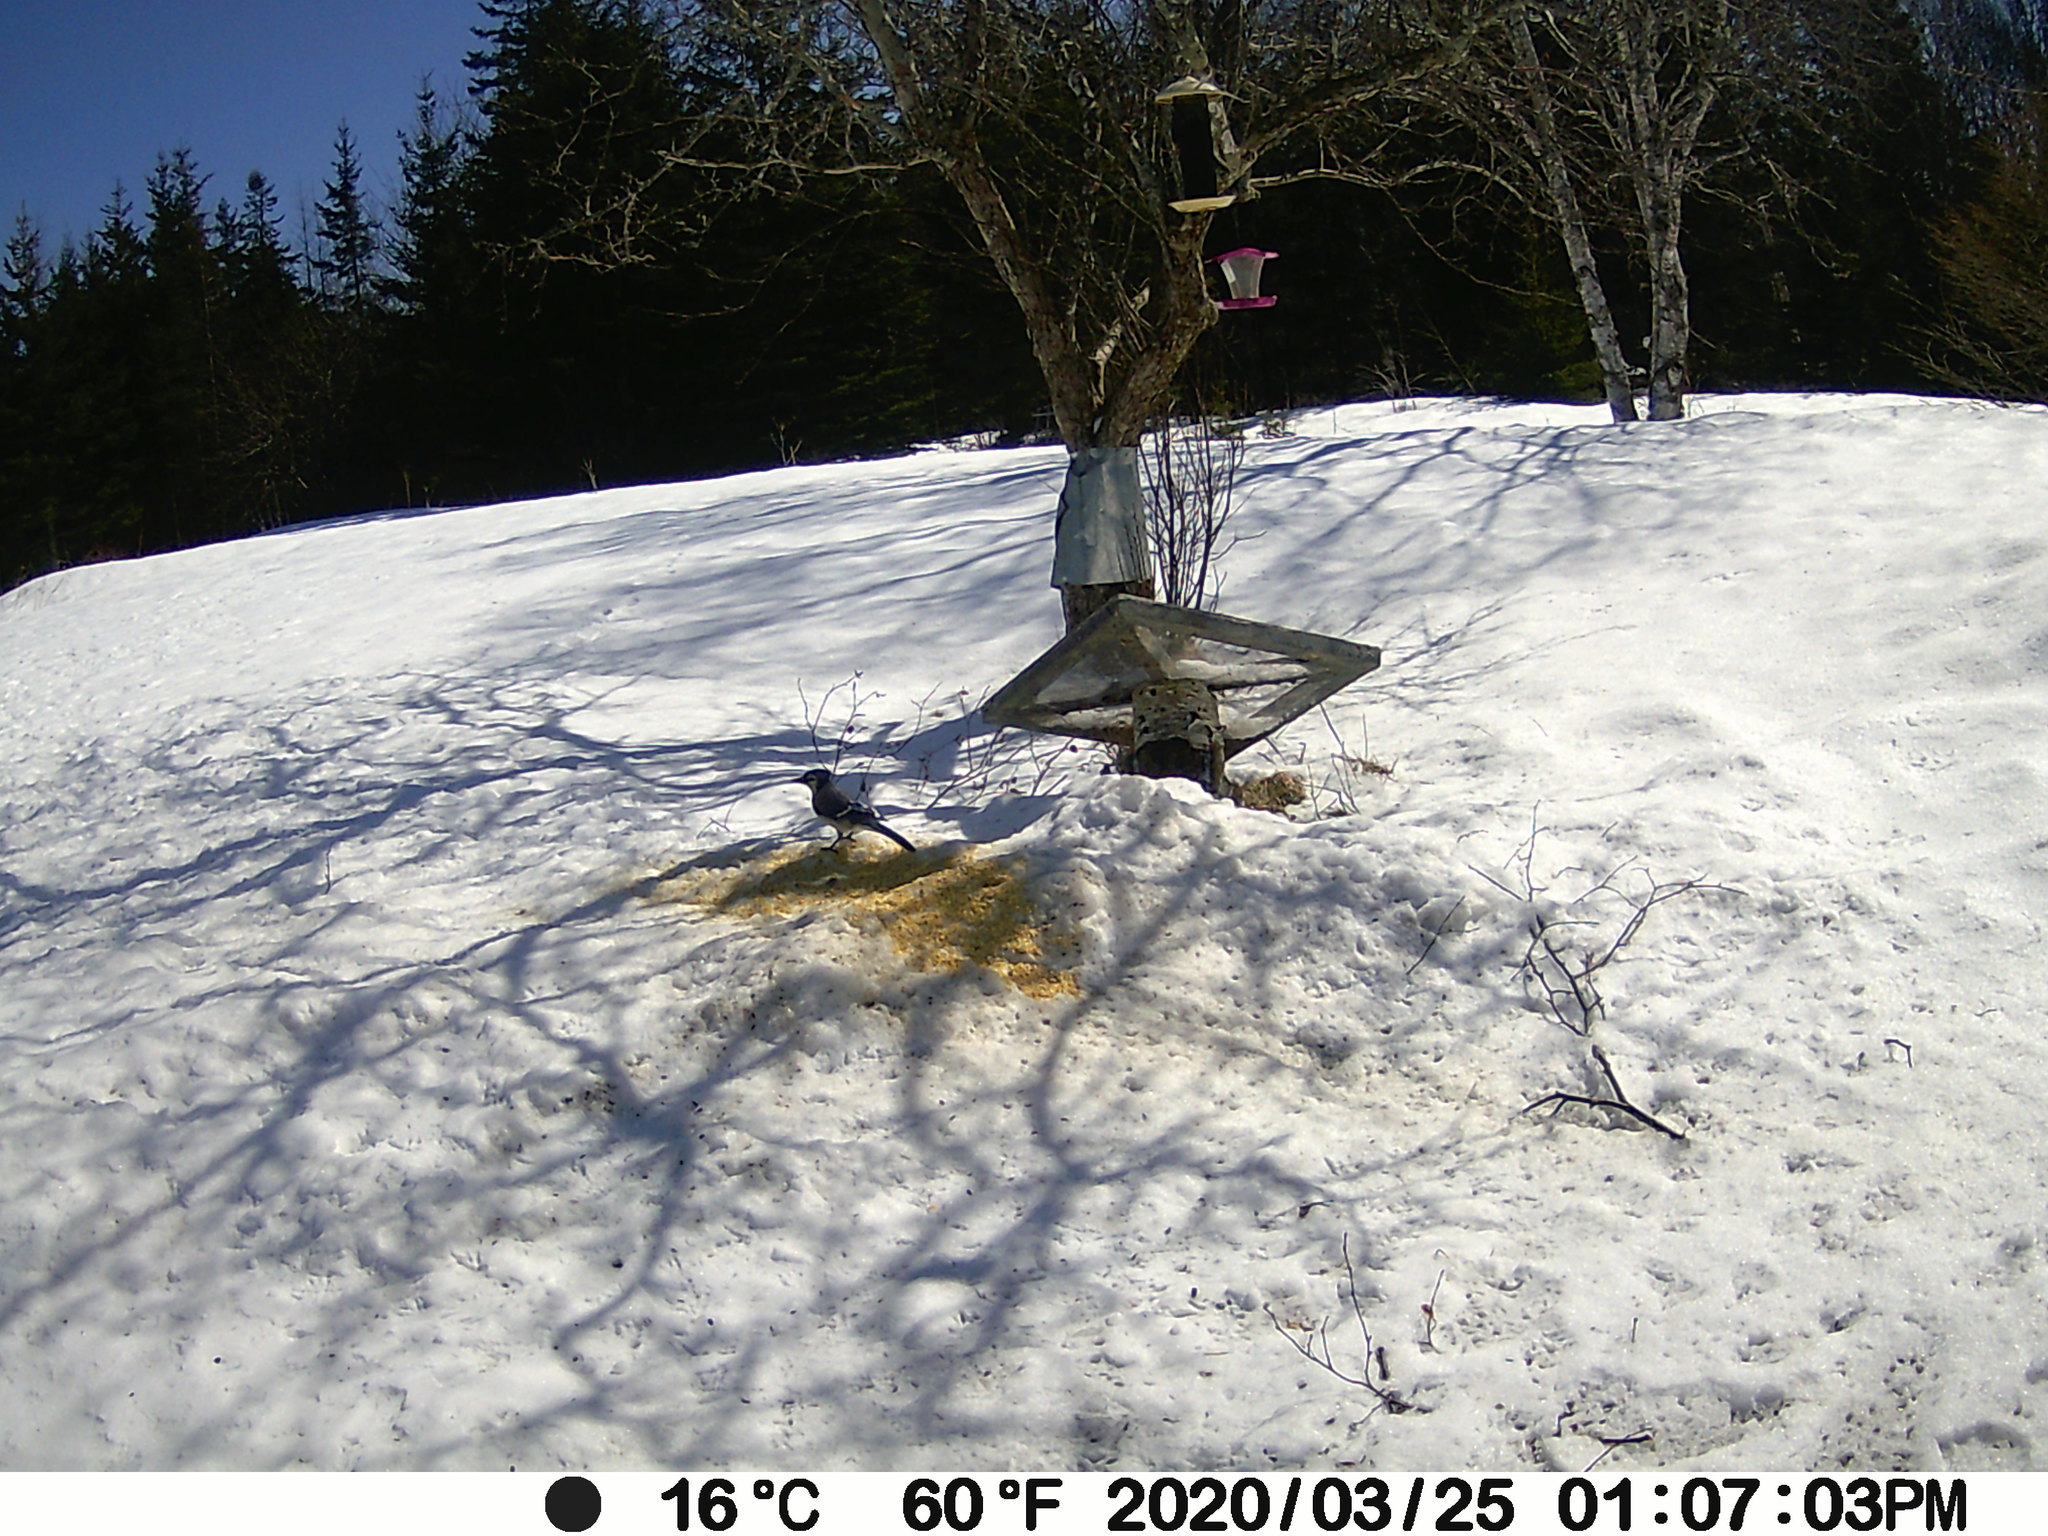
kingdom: Animalia
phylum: Chordata
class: Aves
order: Passeriformes
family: Corvidae
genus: Cyanocitta
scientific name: Cyanocitta cristata
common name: Blue jay
